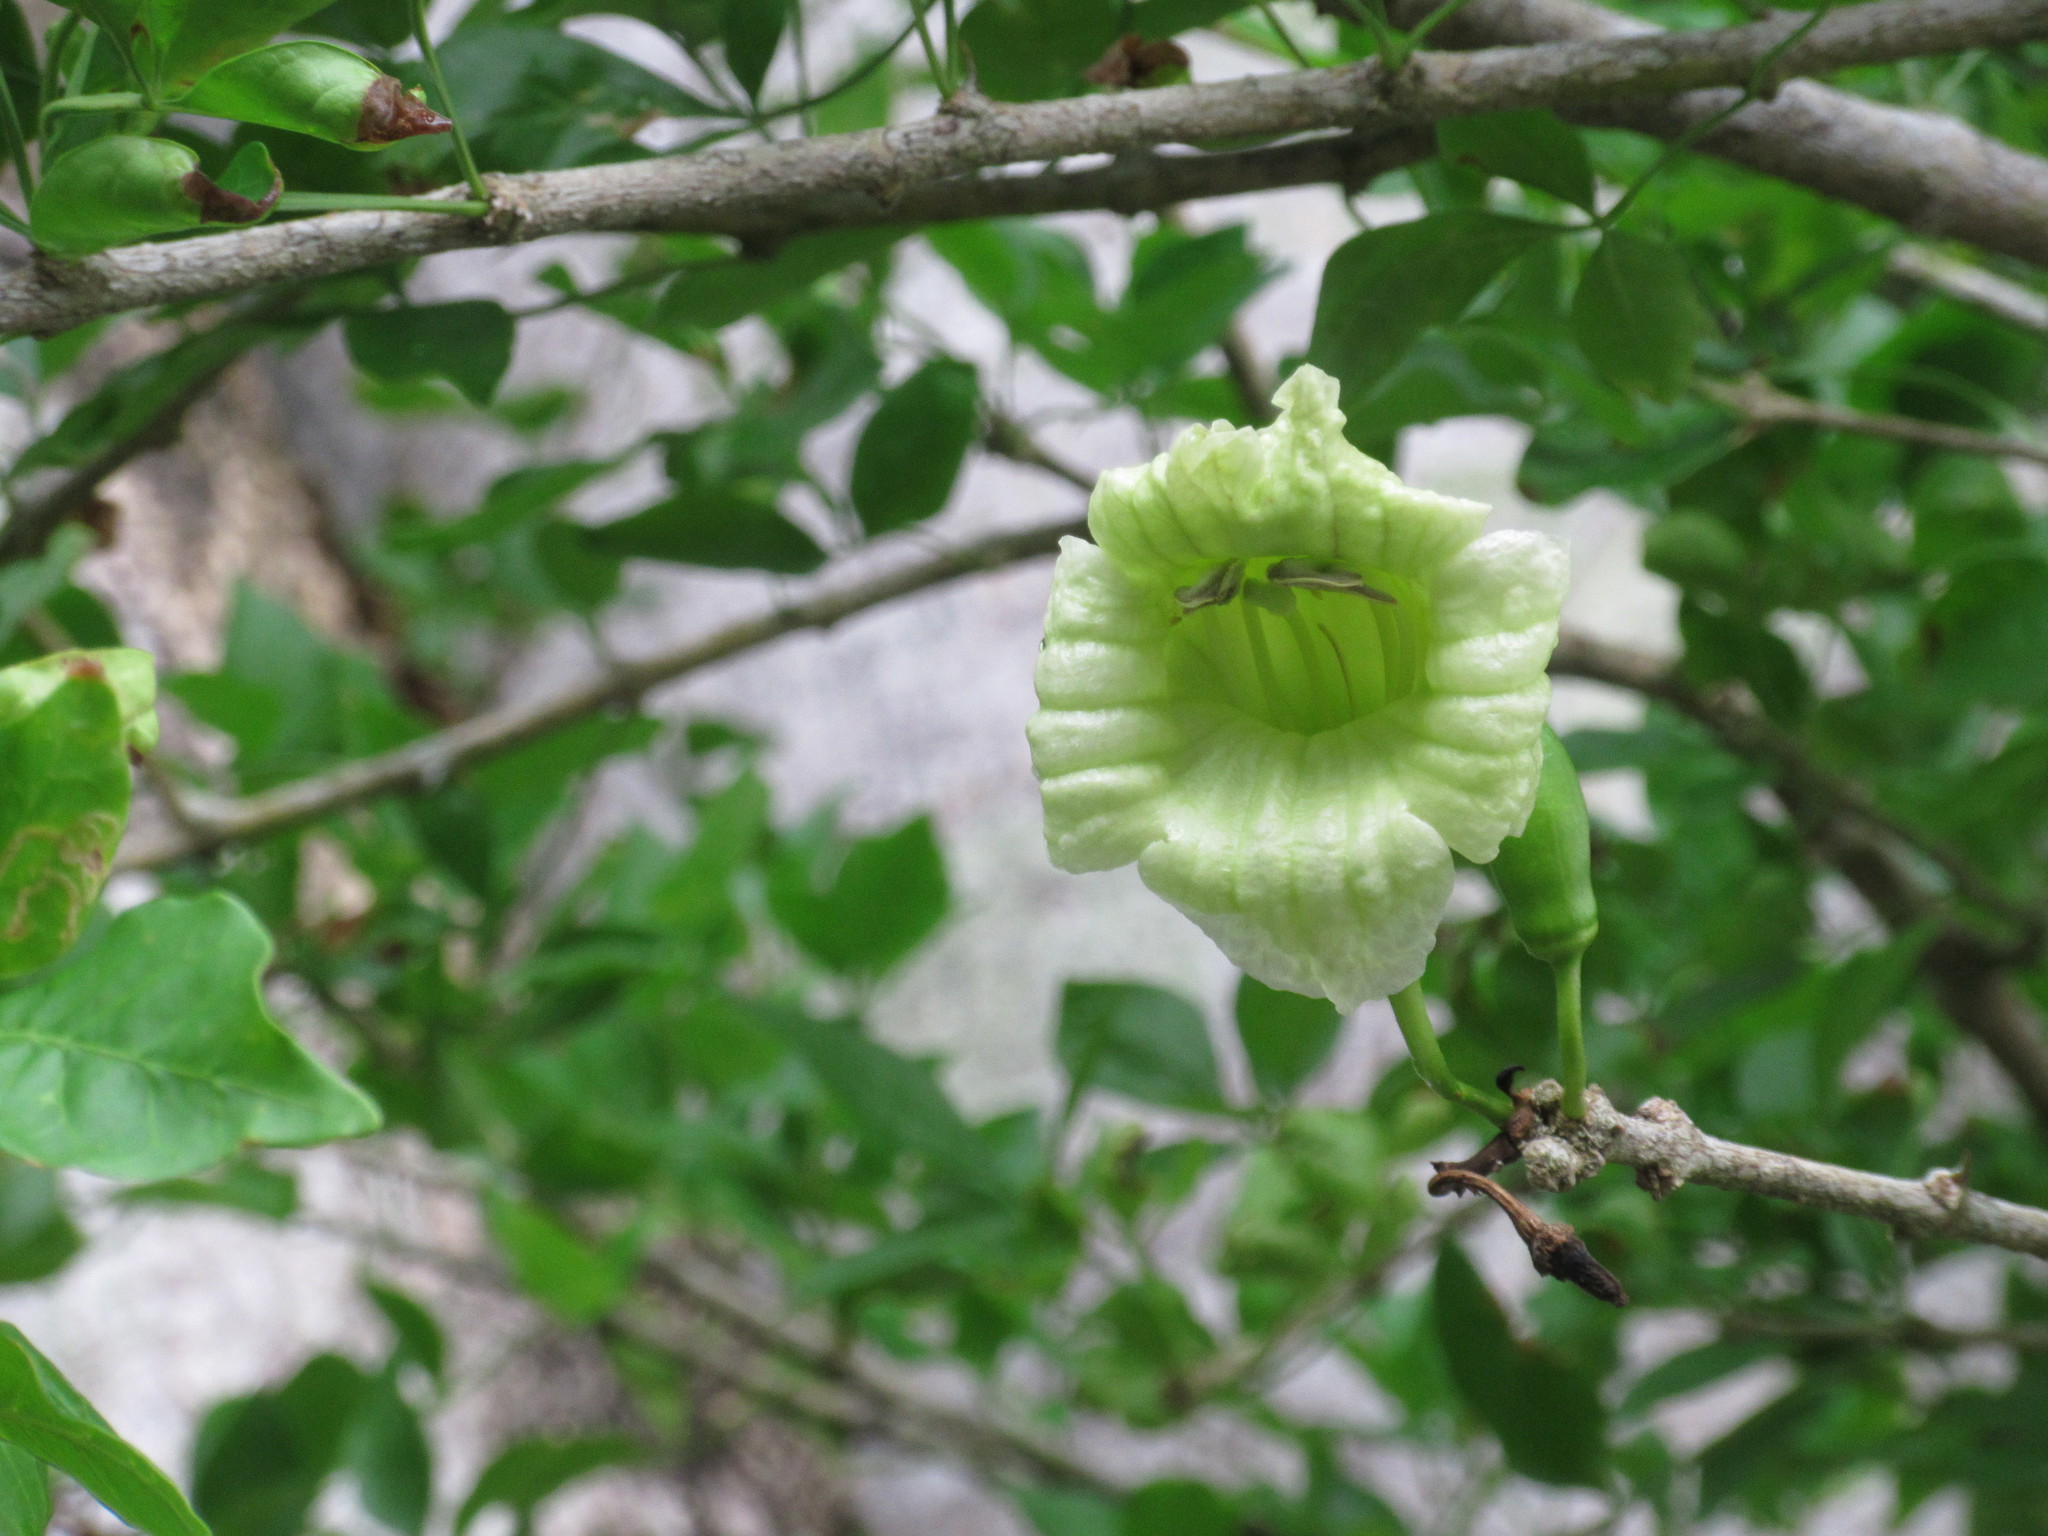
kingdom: Plantae
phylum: Tracheophyta
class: Magnoliopsida
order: Lamiales
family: Bignoniaceae
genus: Parmentiera
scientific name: Parmentiera aculeata
